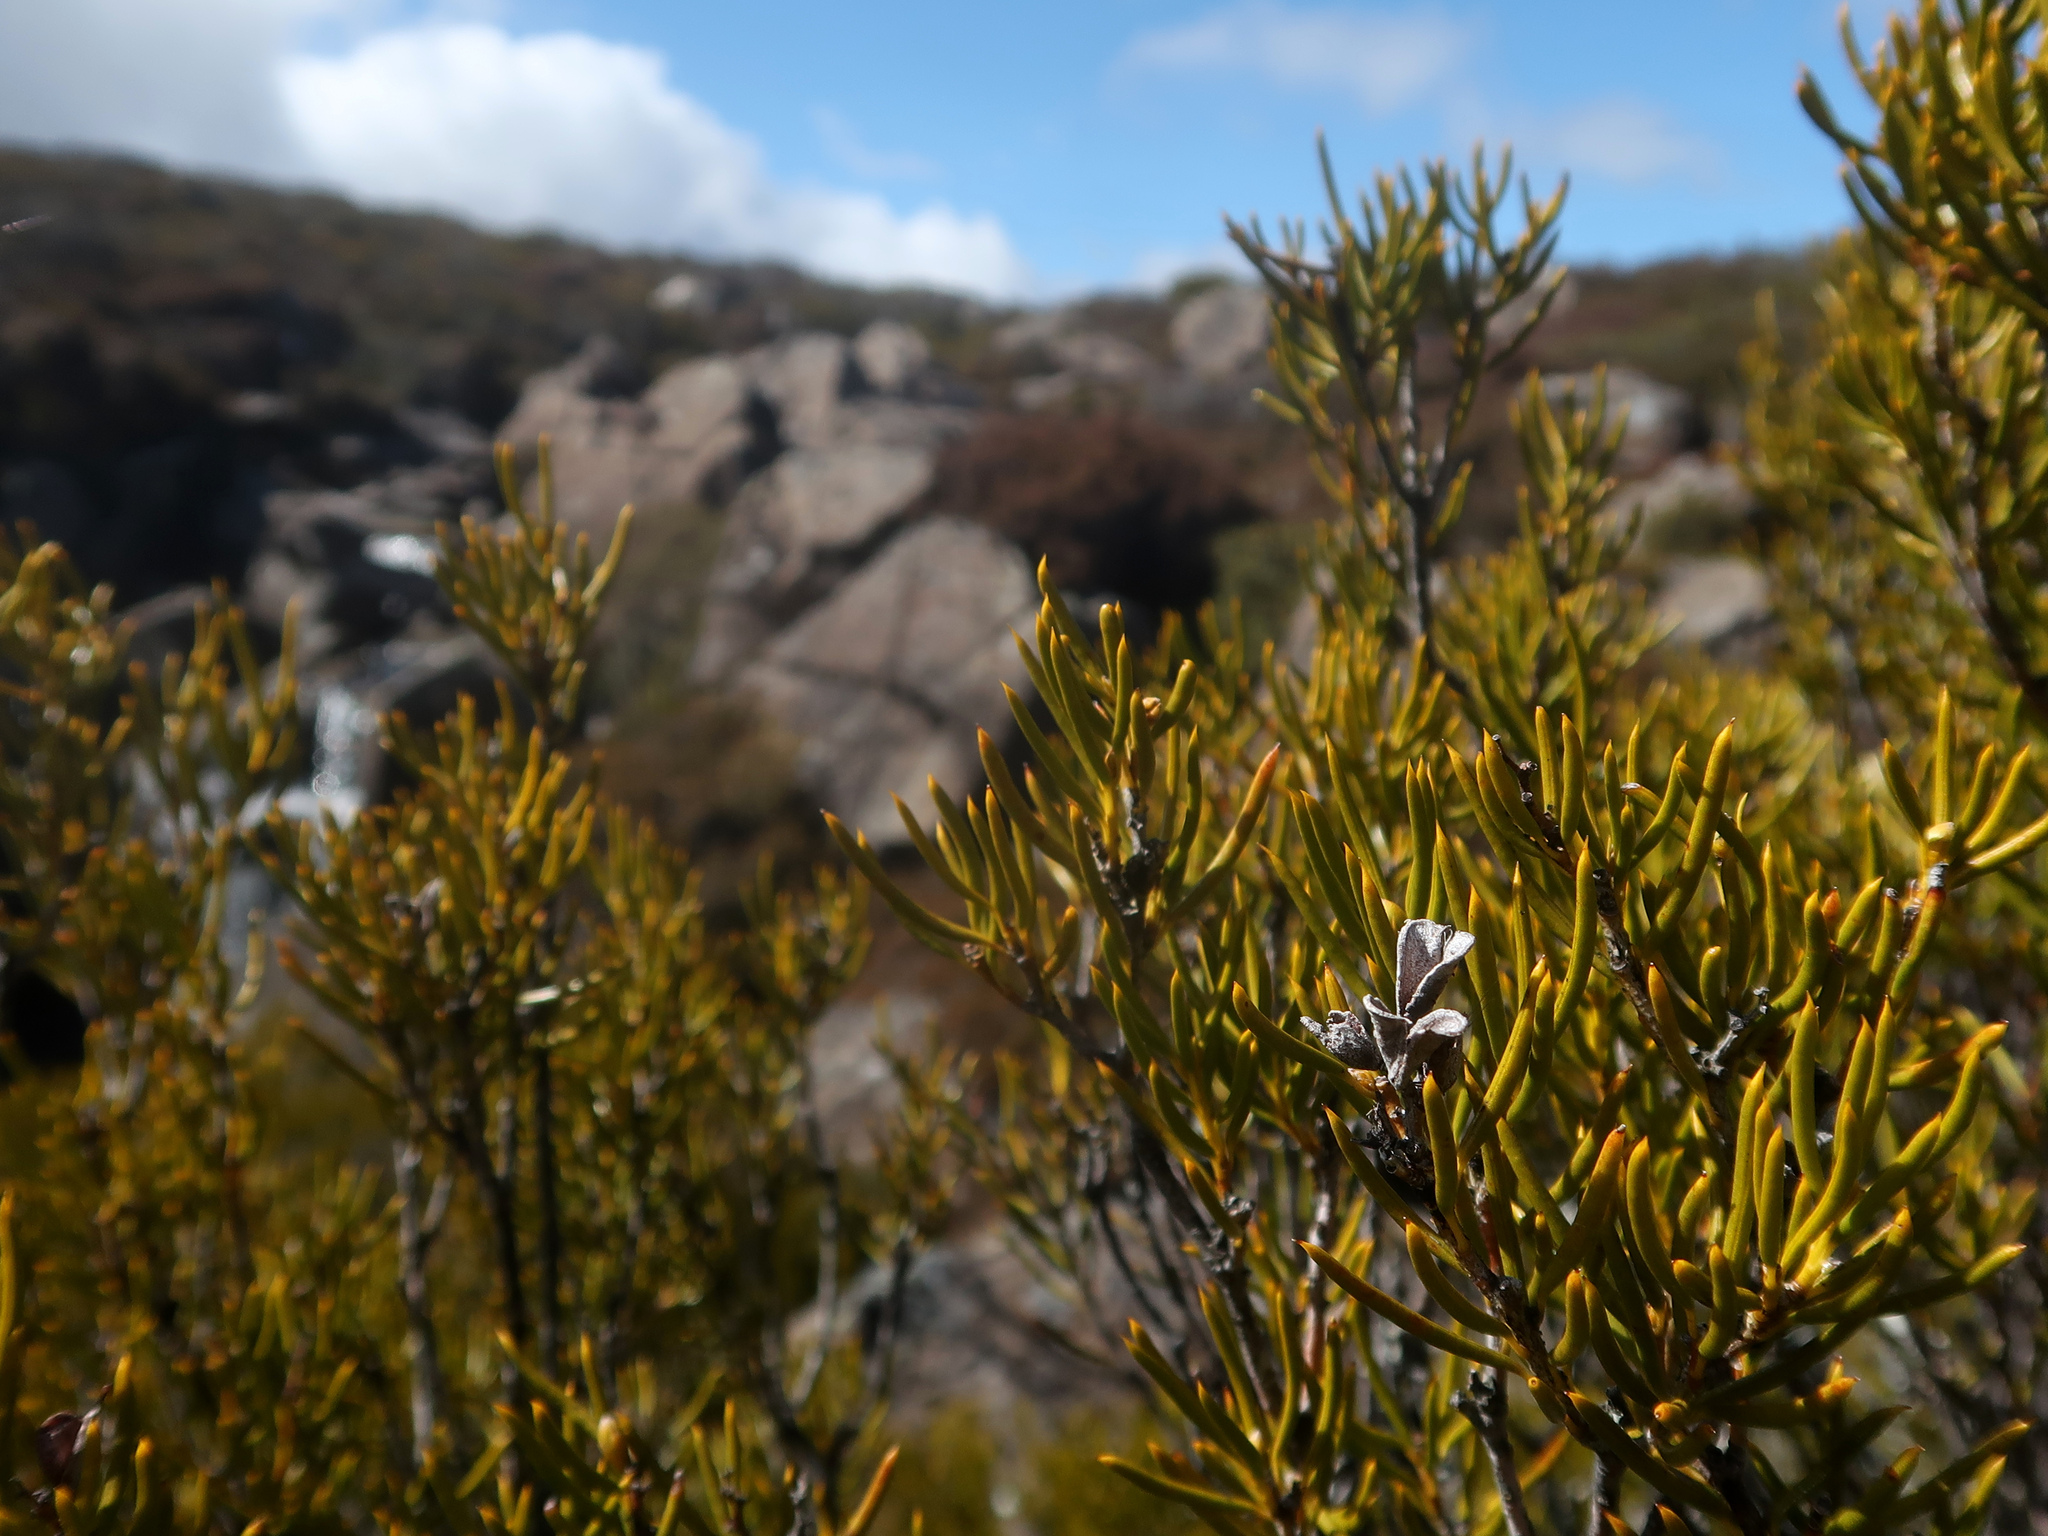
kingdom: Plantae
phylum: Tracheophyta
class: Magnoliopsida
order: Proteales
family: Proteaceae
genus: Orites
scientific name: Orites acicularis
